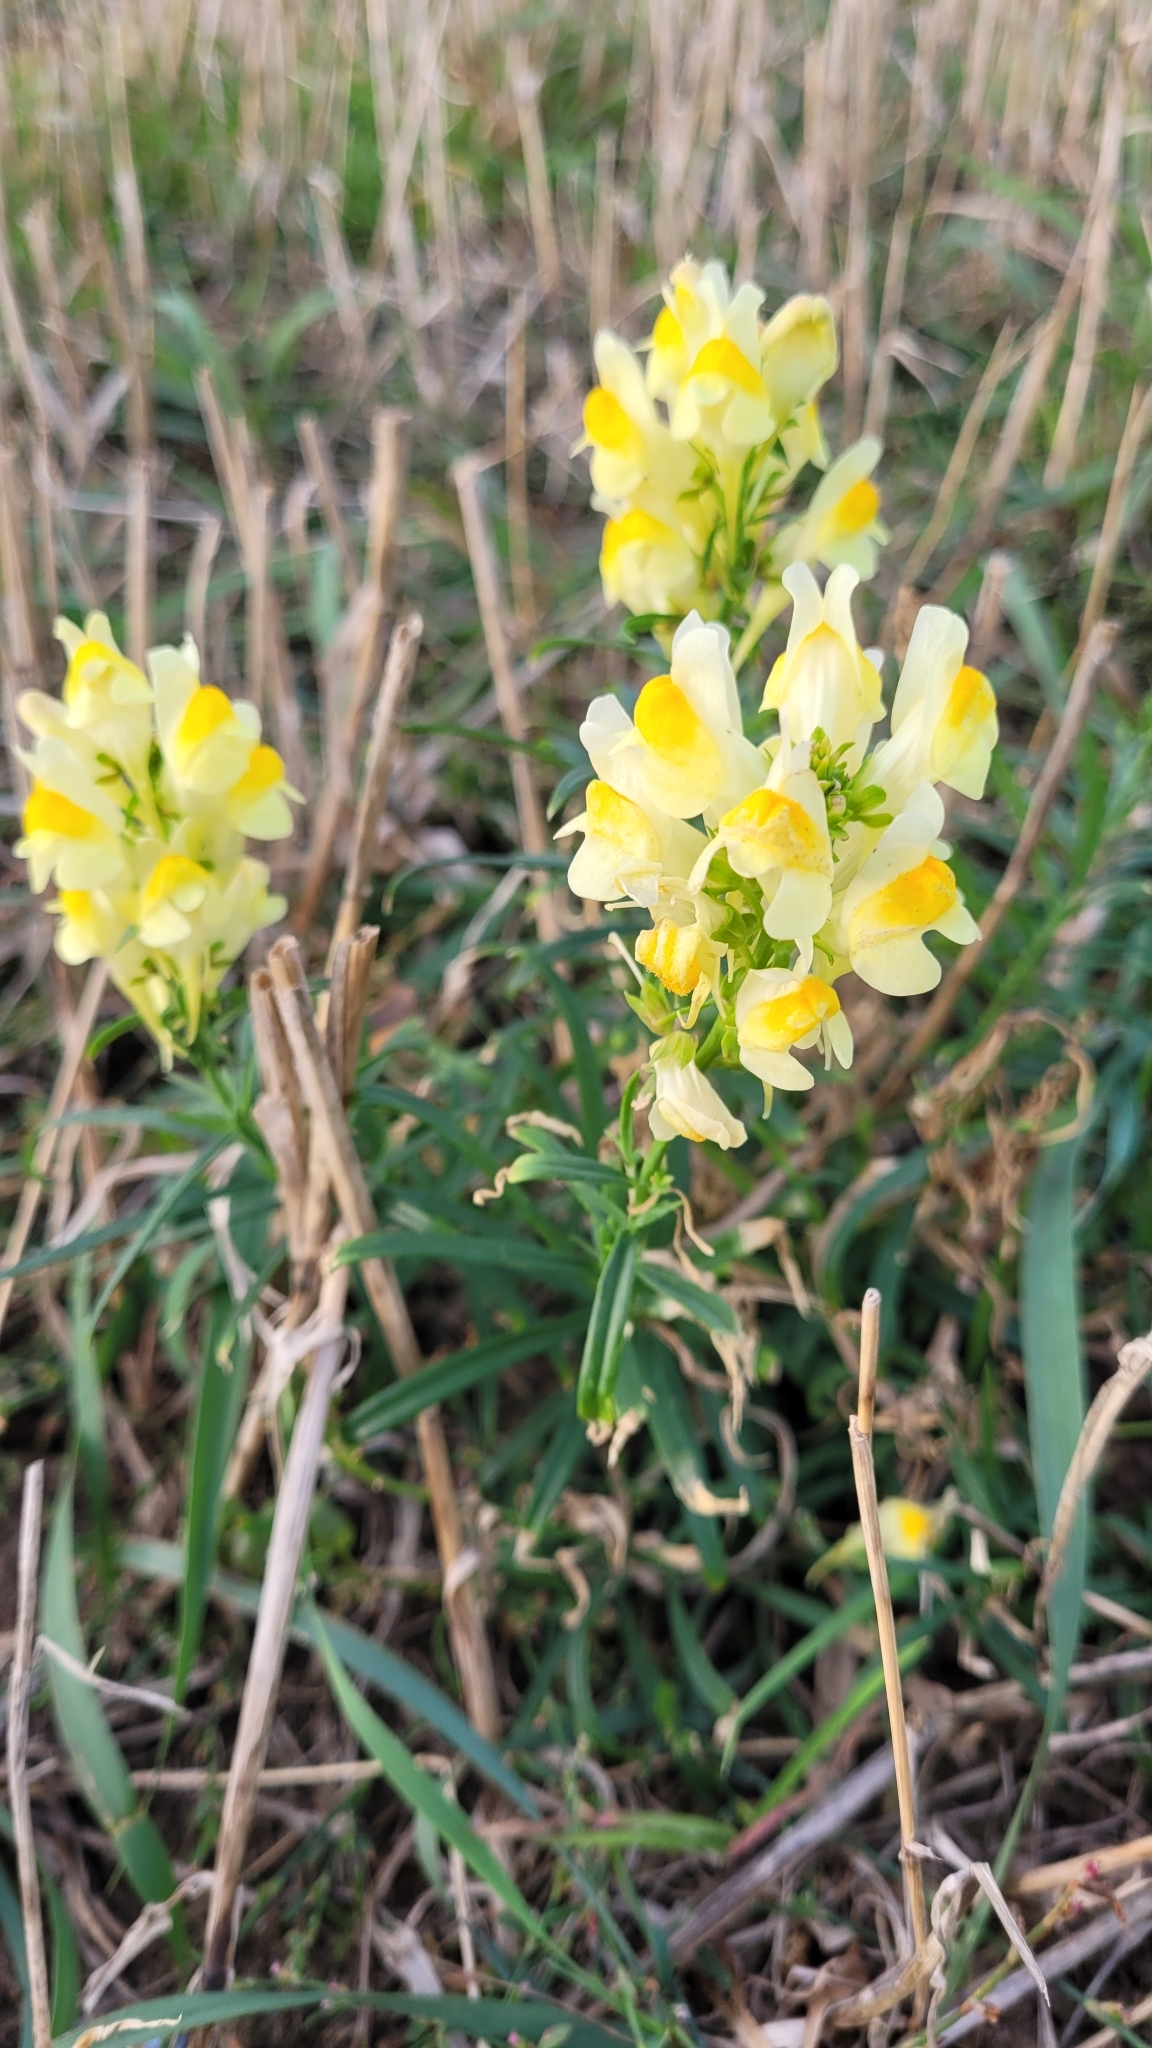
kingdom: Plantae
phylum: Tracheophyta
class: Magnoliopsida
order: Lamiales
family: Plantaginaceae
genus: Linaria
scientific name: Linaria vulgaris
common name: Butter and eggs
